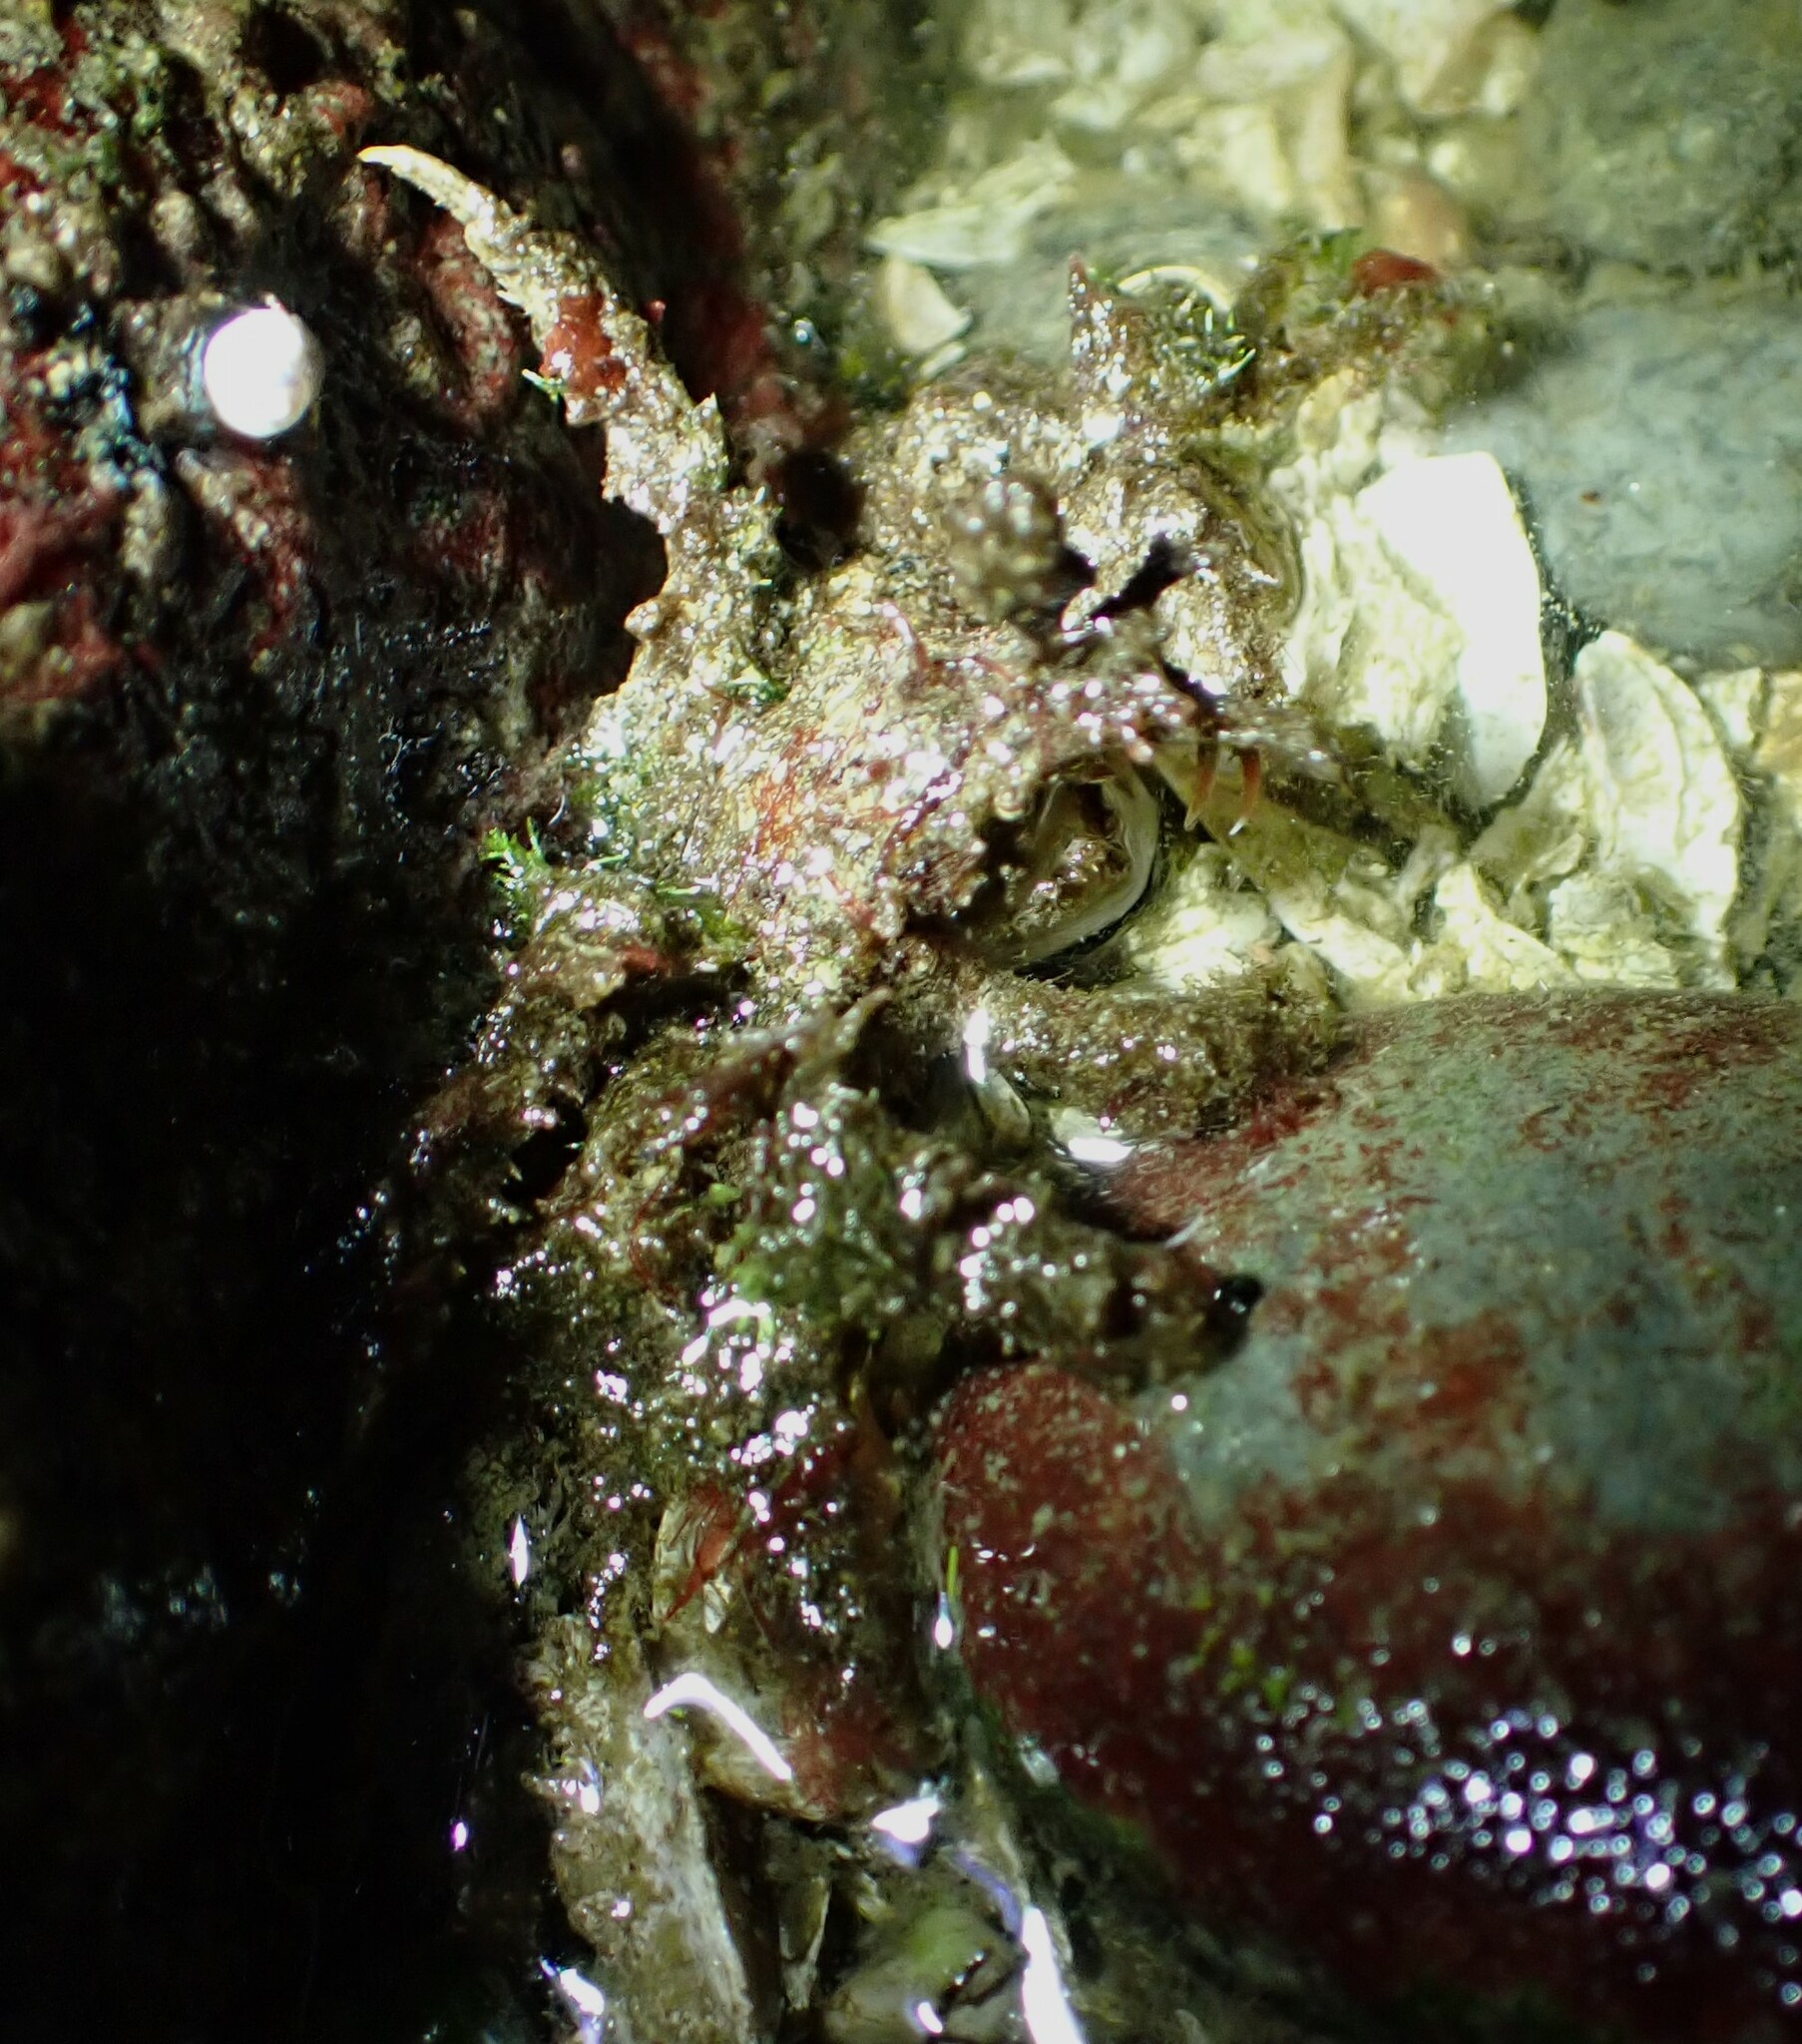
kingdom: Animalia
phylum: Arthropoda
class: Malacostraca
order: Decapoda
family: Oregoniidae
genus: Oregonia
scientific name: Oregonia gracilis
